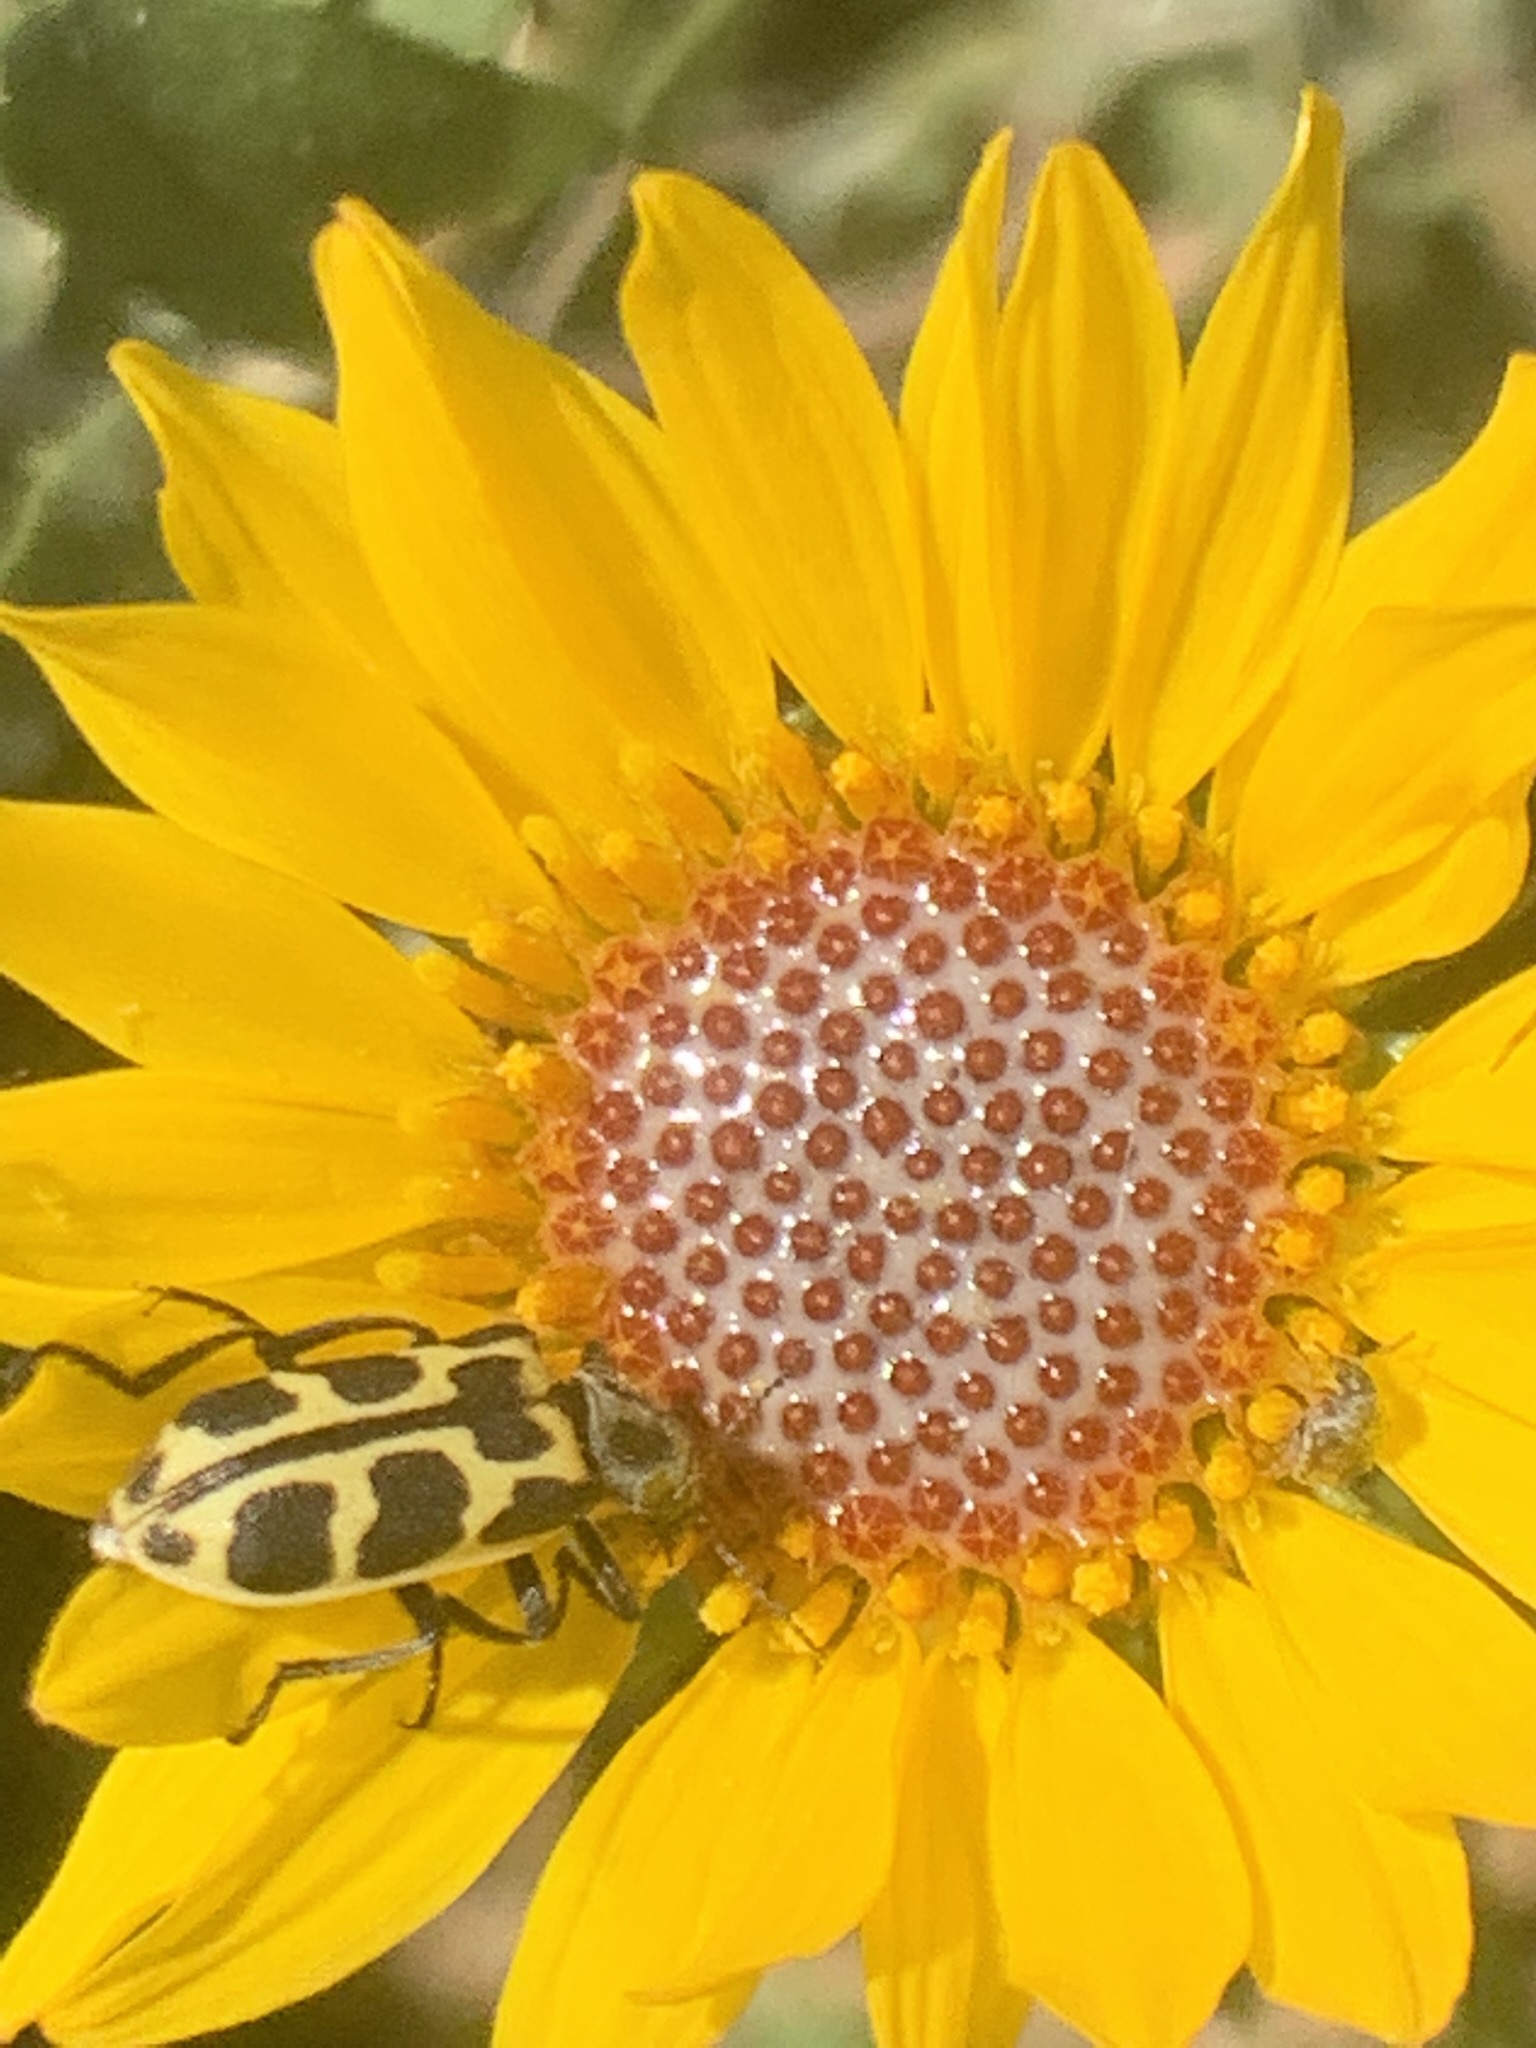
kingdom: Plantae
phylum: Tracheophyta
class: Magnoliopsida
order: Asterales
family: Asteraceae
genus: Grindelia
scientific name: Grindelia pulchella
